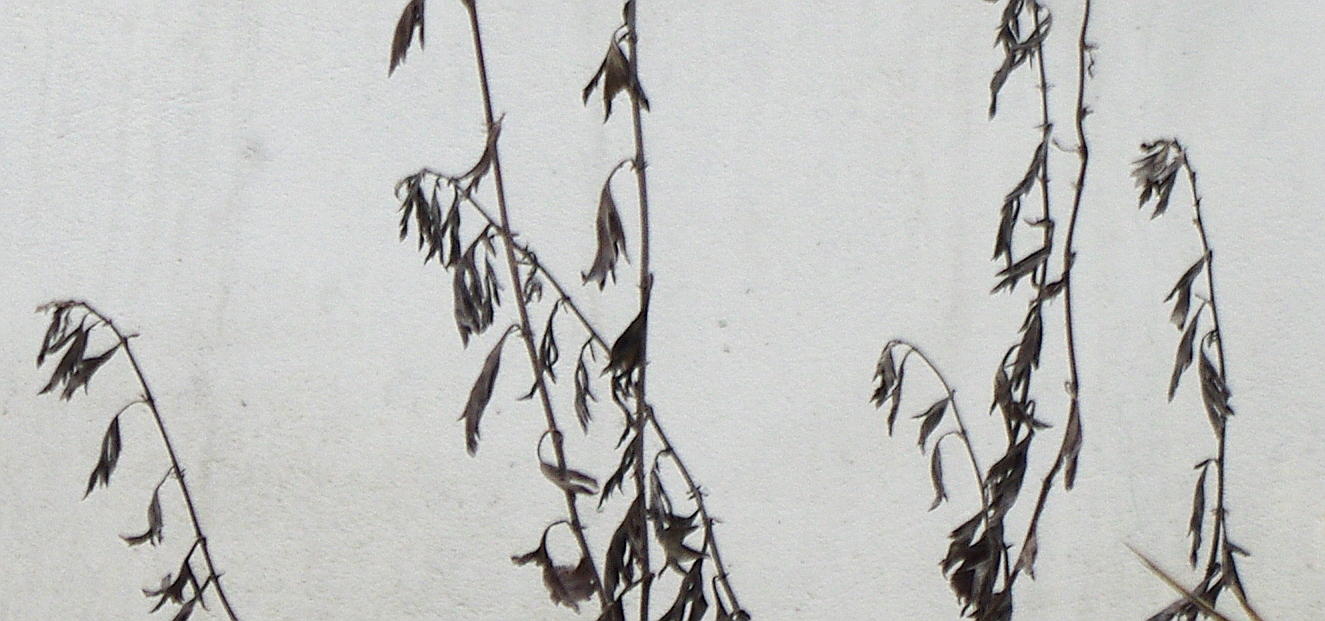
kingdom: Plantae
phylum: Tracheophyta
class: Magnoliopsida
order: Asterales
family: Asteraceae
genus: Artemisia
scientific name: Artemisia vulgaris
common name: Mugwort
